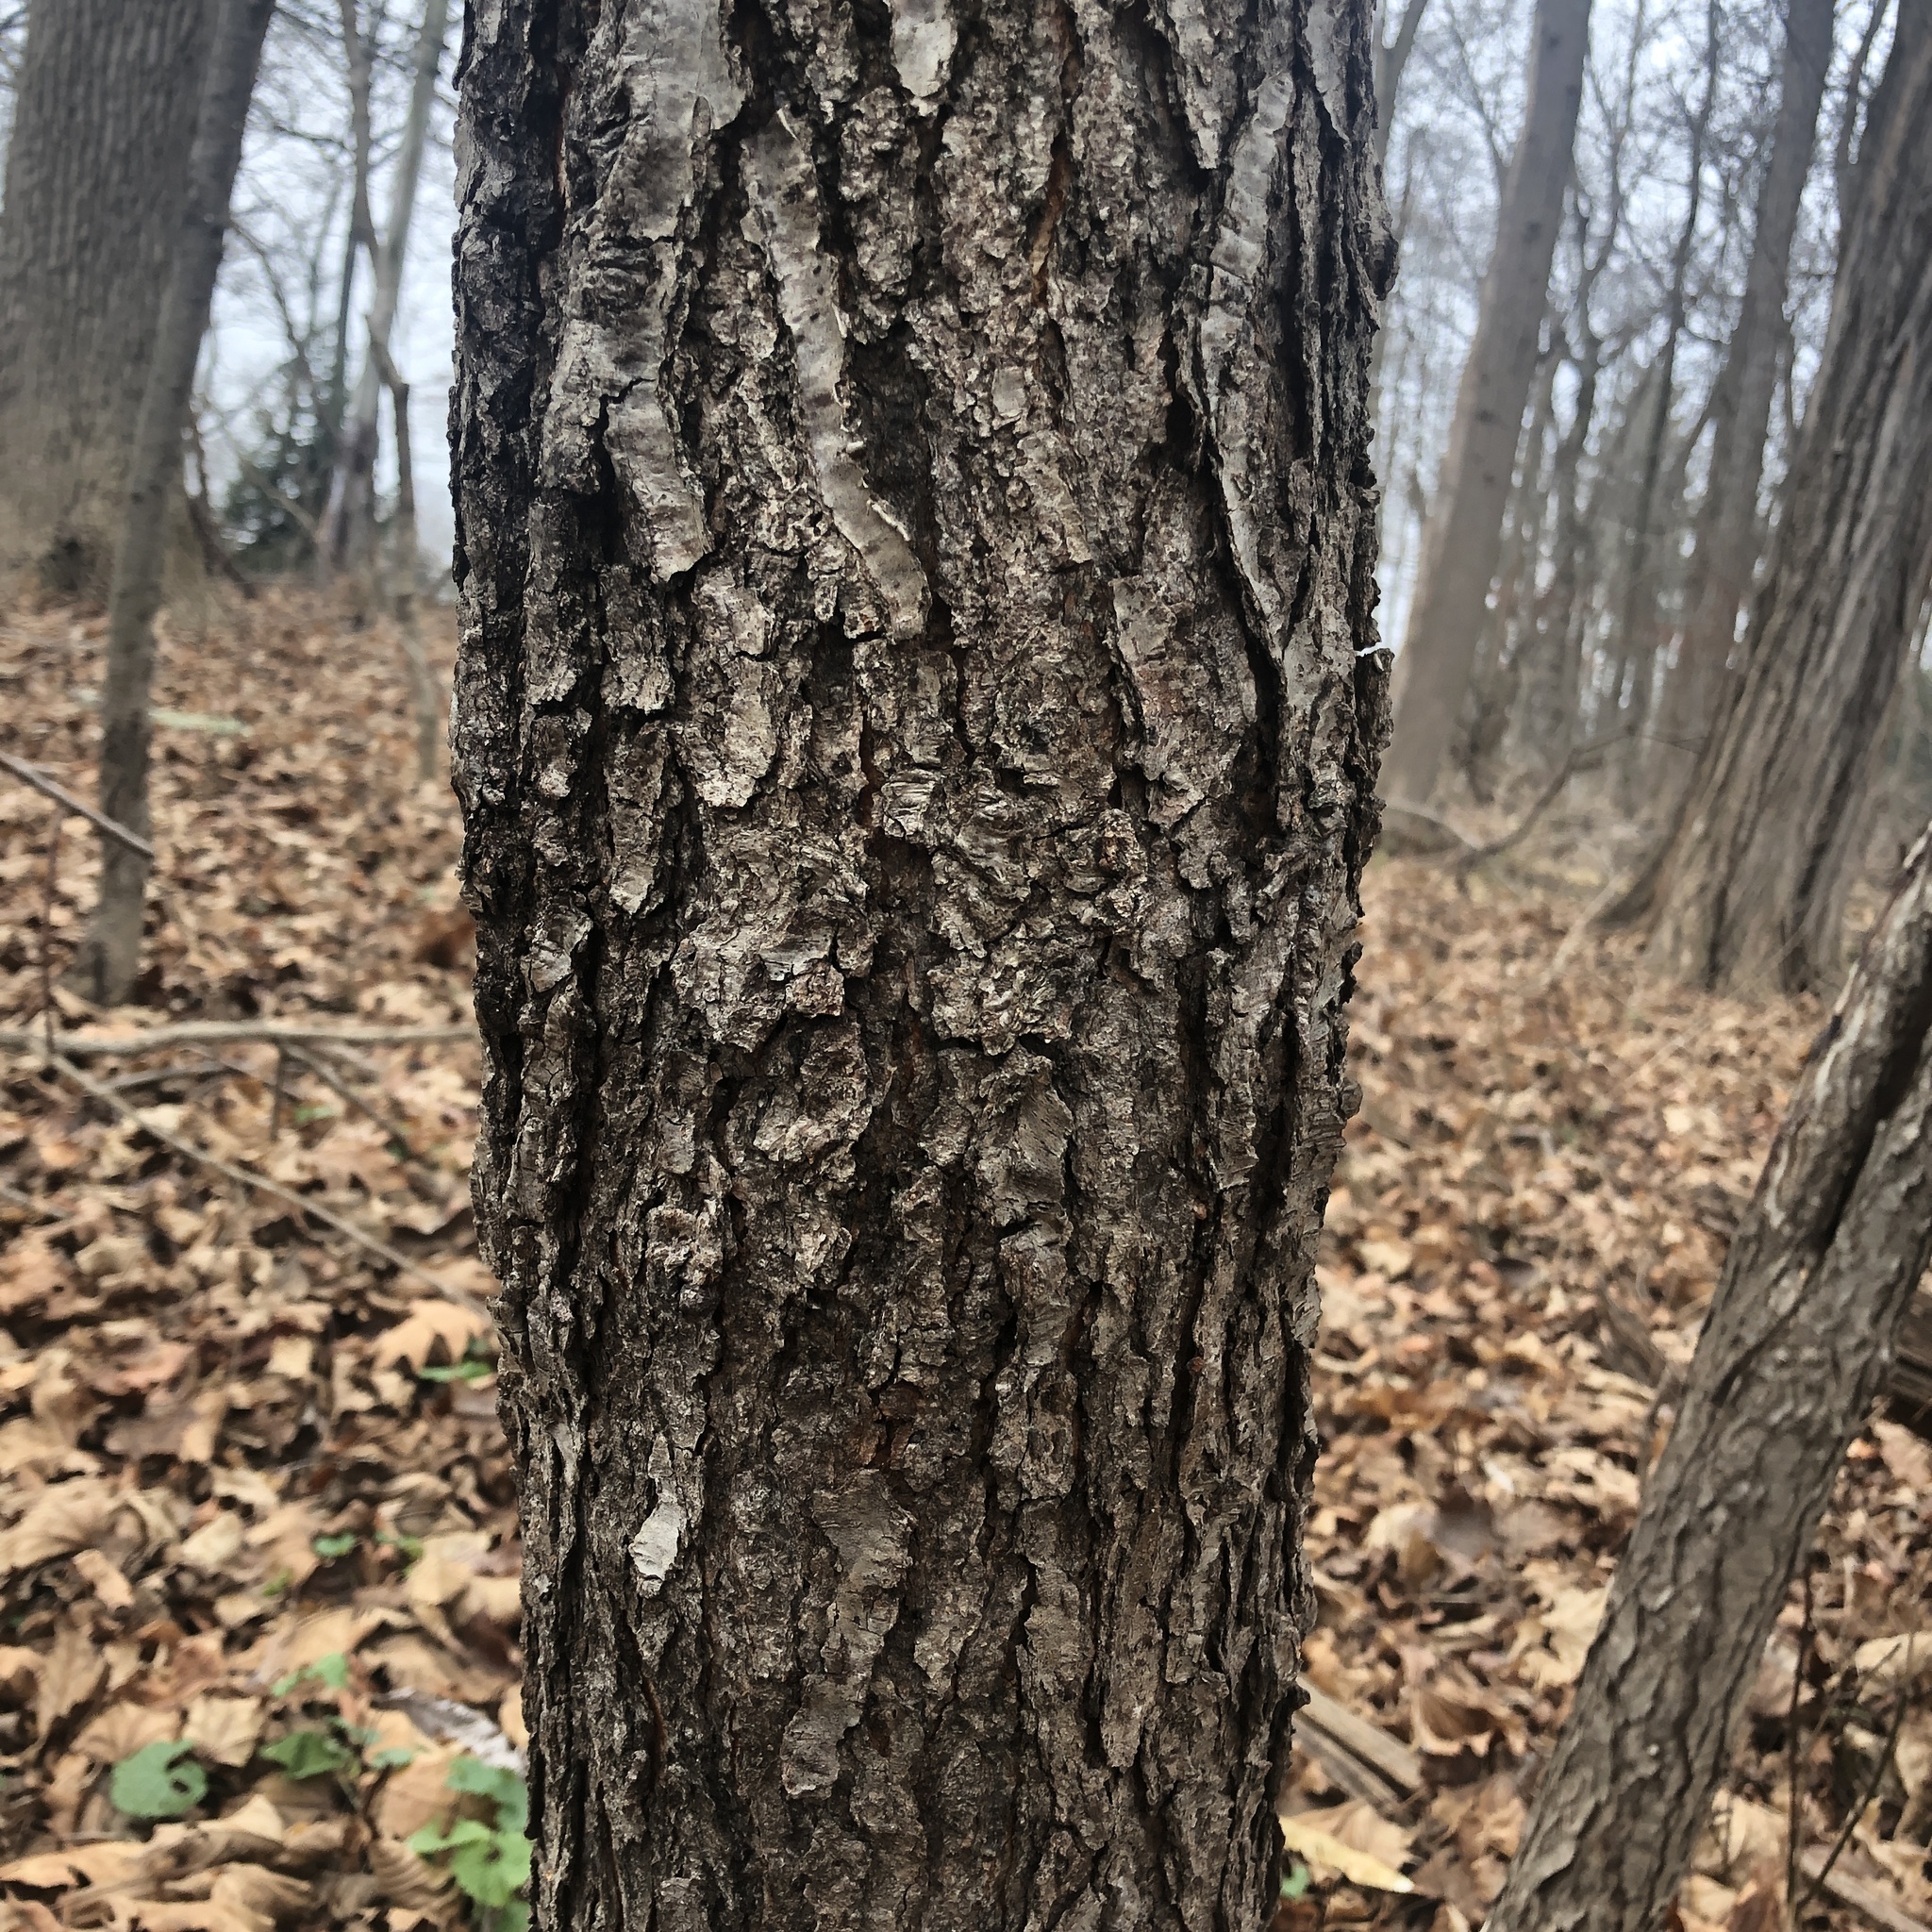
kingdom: Plantae
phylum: Tracheophyta
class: Magnoliopsida
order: Rosales
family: Rosaceae
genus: Prunus
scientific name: Prunus serotina
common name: Black cherry
